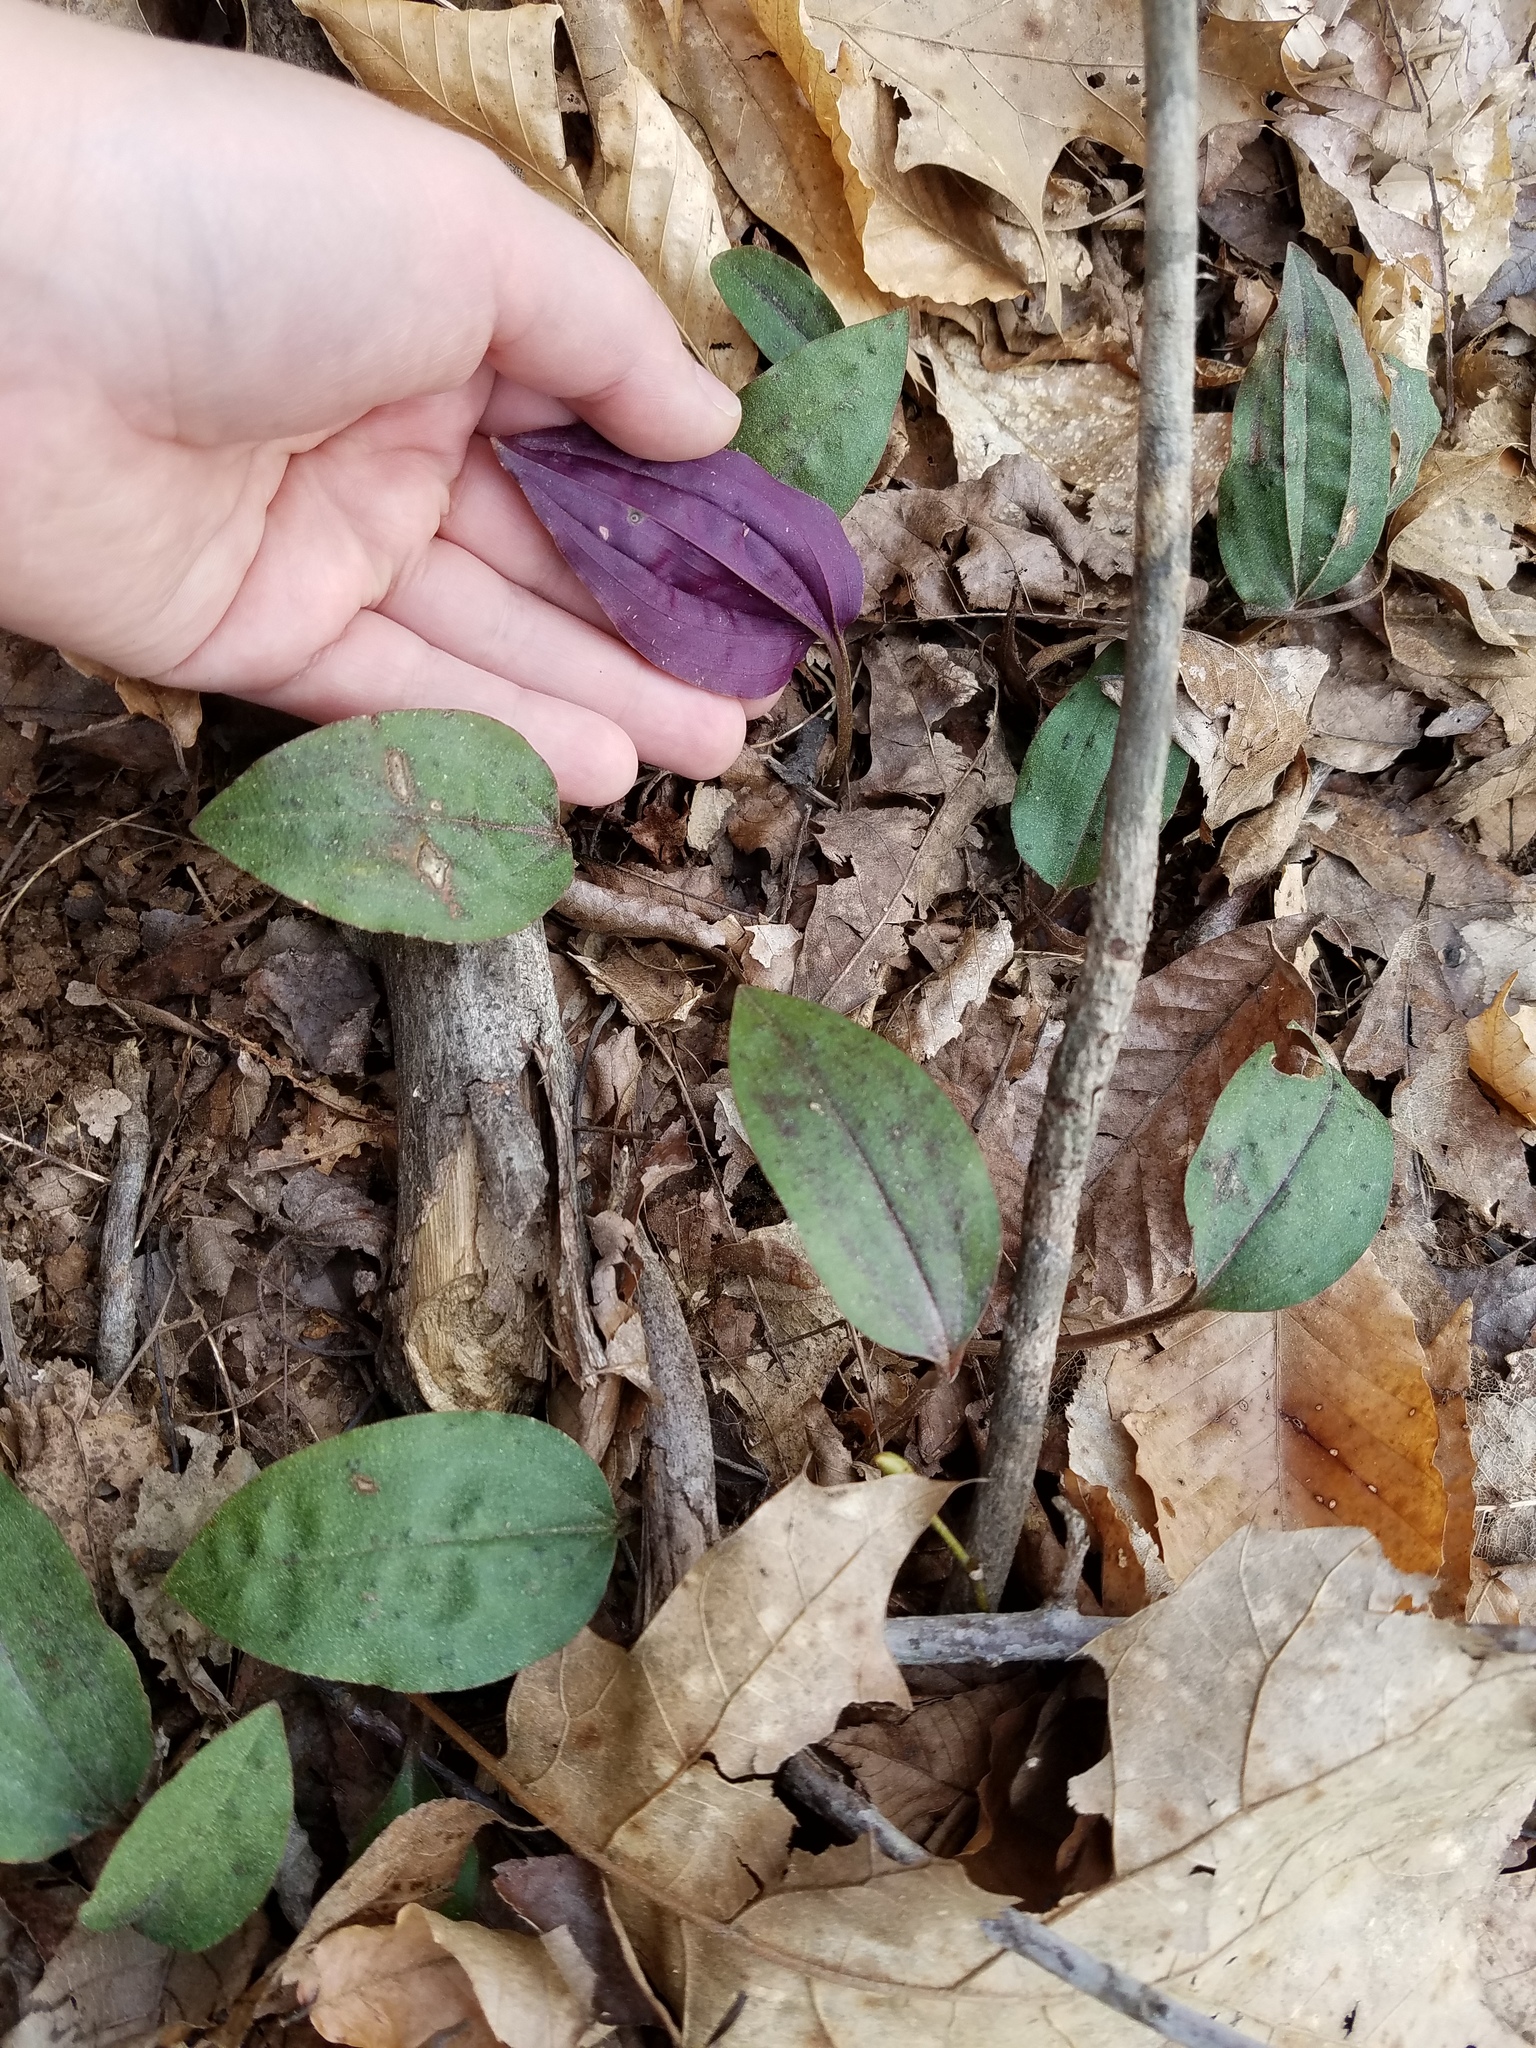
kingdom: Plantae
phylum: Tracheophyta
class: Liliopsida
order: Asparagales
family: Orchidaceae
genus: Tipularia
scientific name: Tipularia discolor
